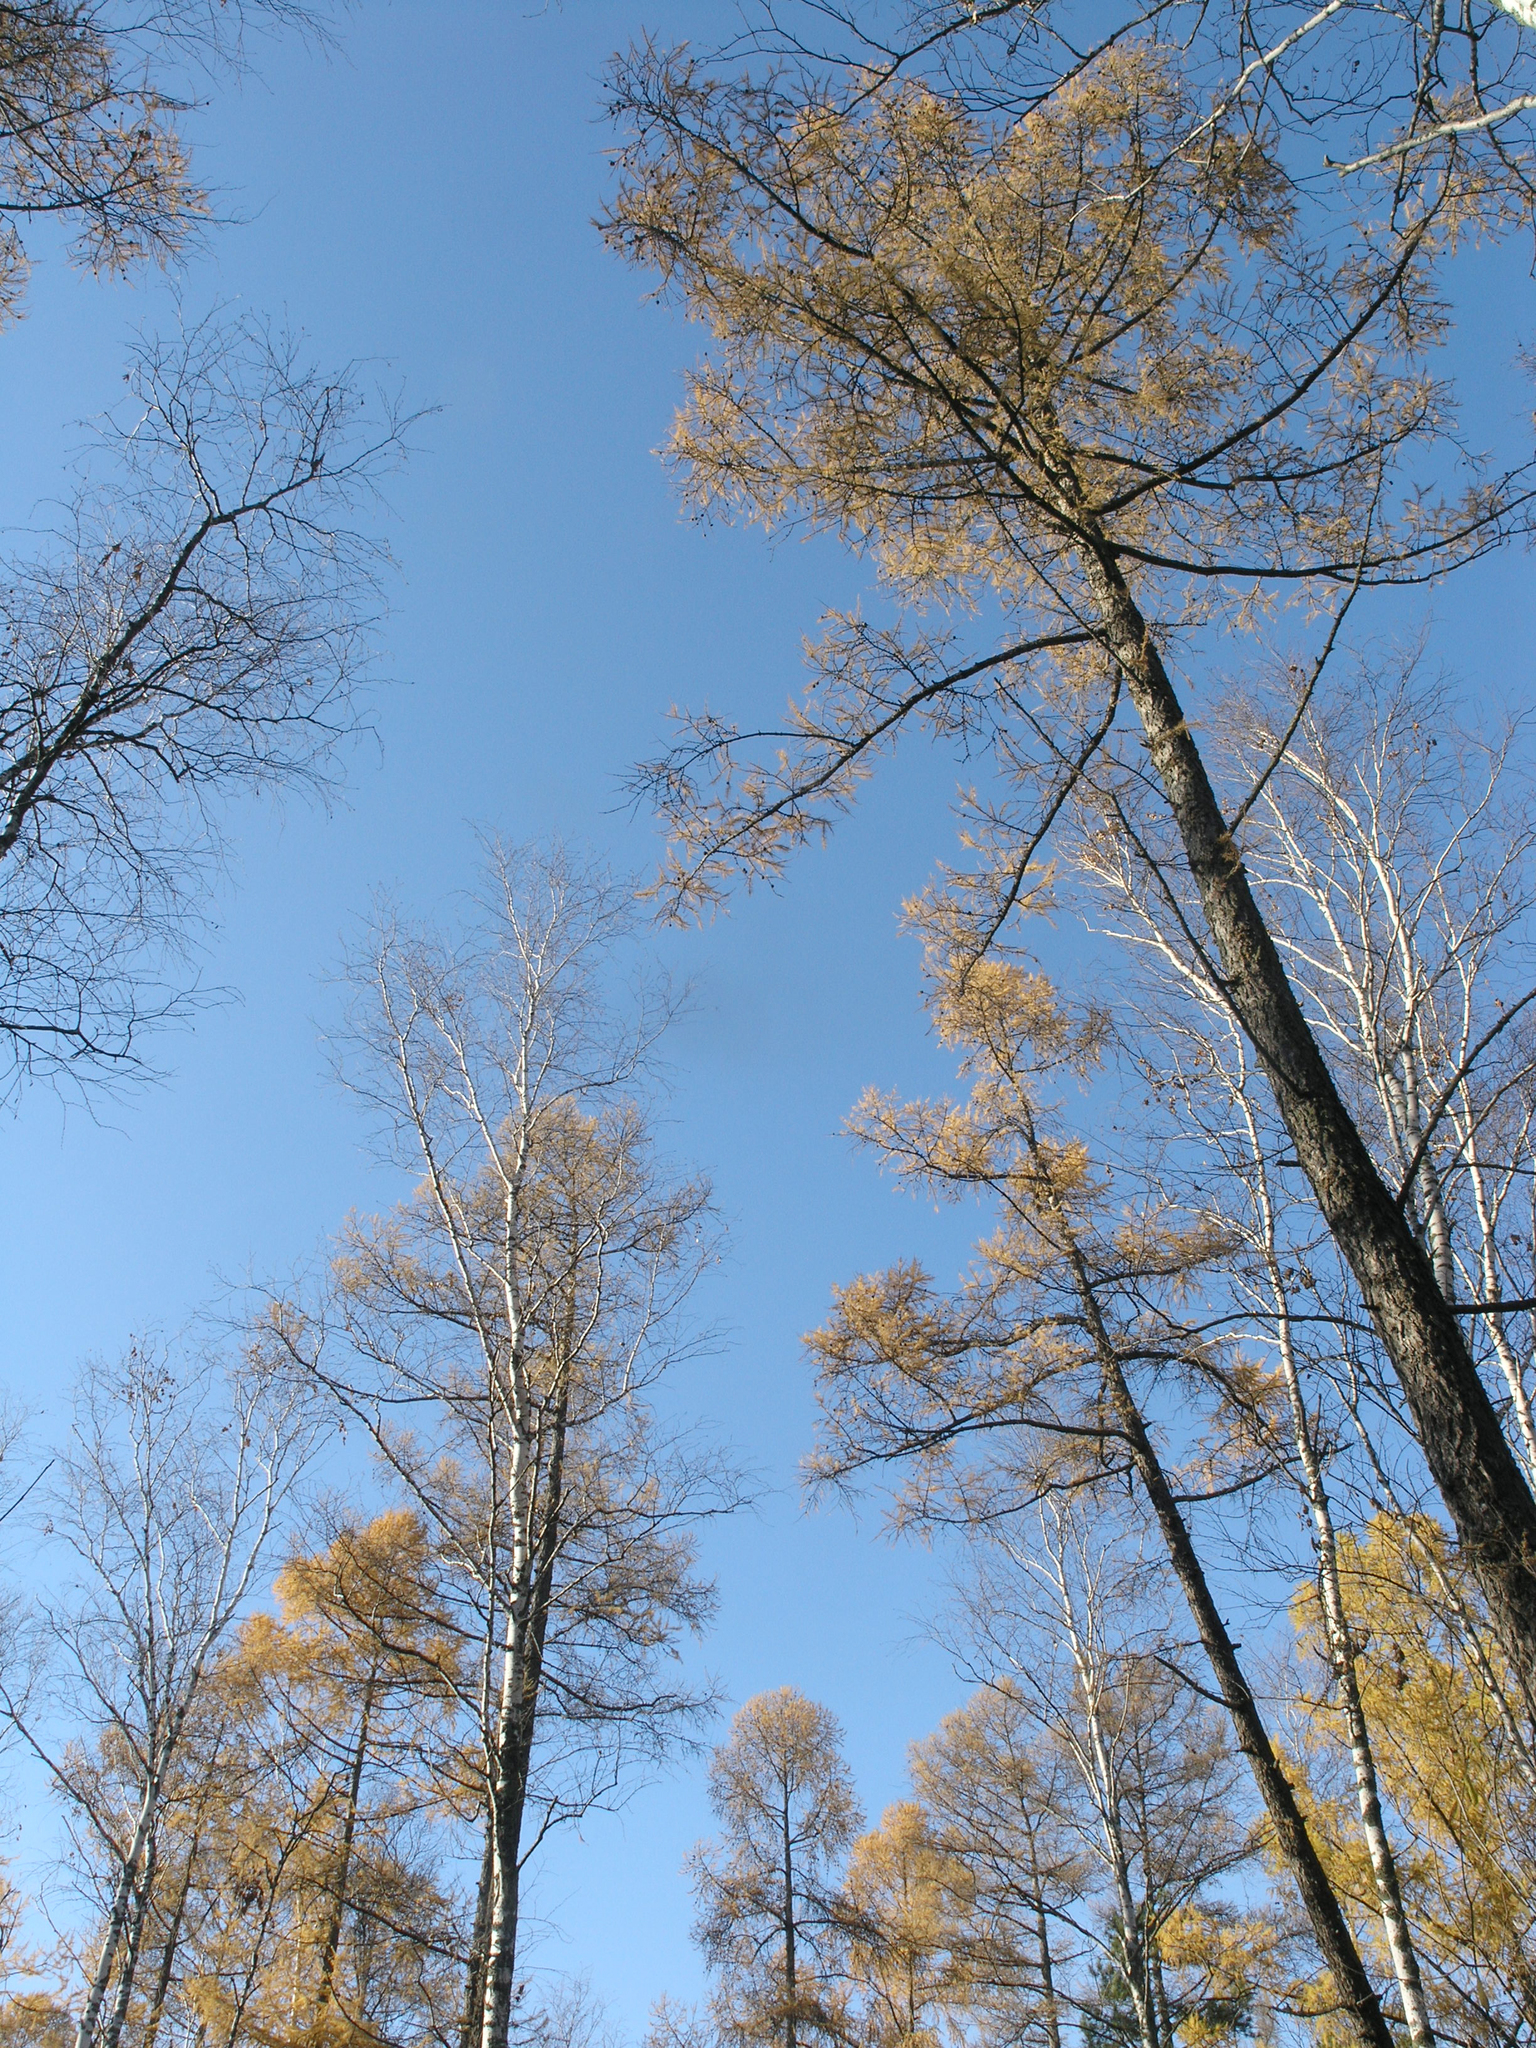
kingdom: Plantae
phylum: Tracheophyta
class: Pinopsida
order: Pinales
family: Pinaceae
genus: Larix
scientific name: Larix sibirica
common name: Siberian larch
